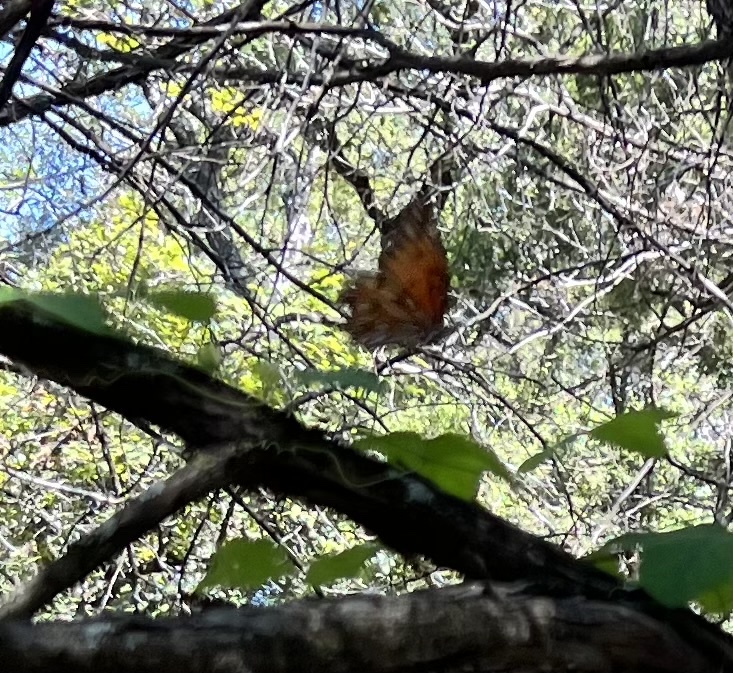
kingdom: Animalia
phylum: Arthropoda
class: Insecta
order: Lepidoptera
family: Nymphalidae
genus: Dione
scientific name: Dione vanillae
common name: Gulf fritillary
